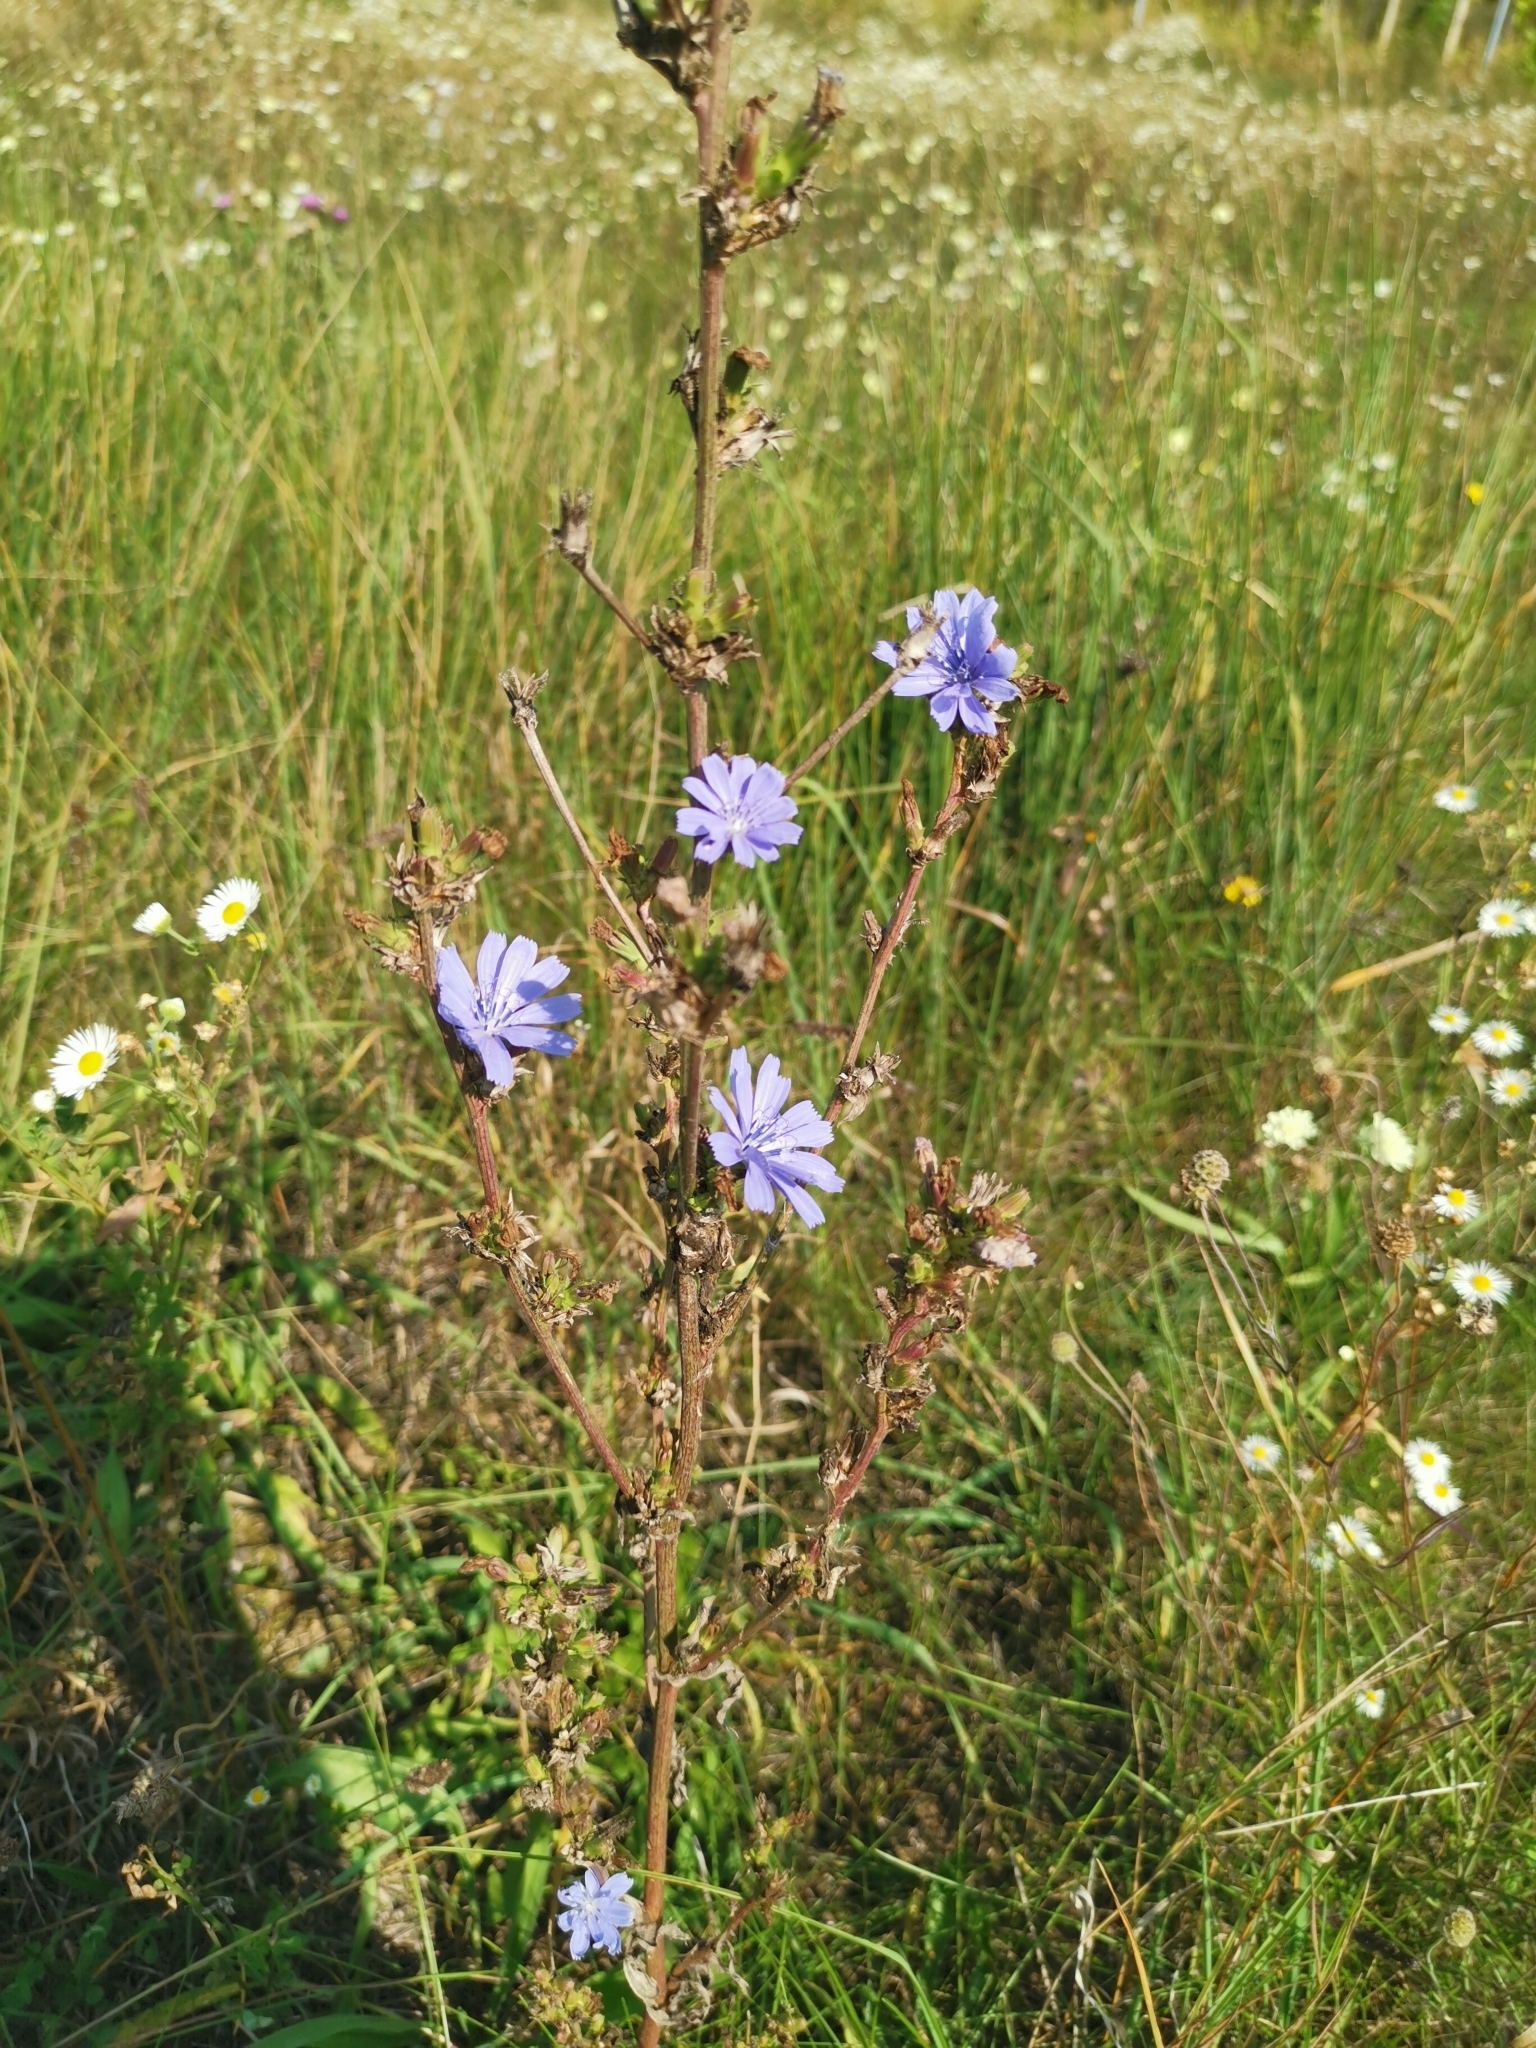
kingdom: Plantae
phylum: Tracheophyta
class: Magnoliopsida
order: Asterales
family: Asteraceae
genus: Cichorium
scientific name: Cichorium intybus
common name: Chicory
